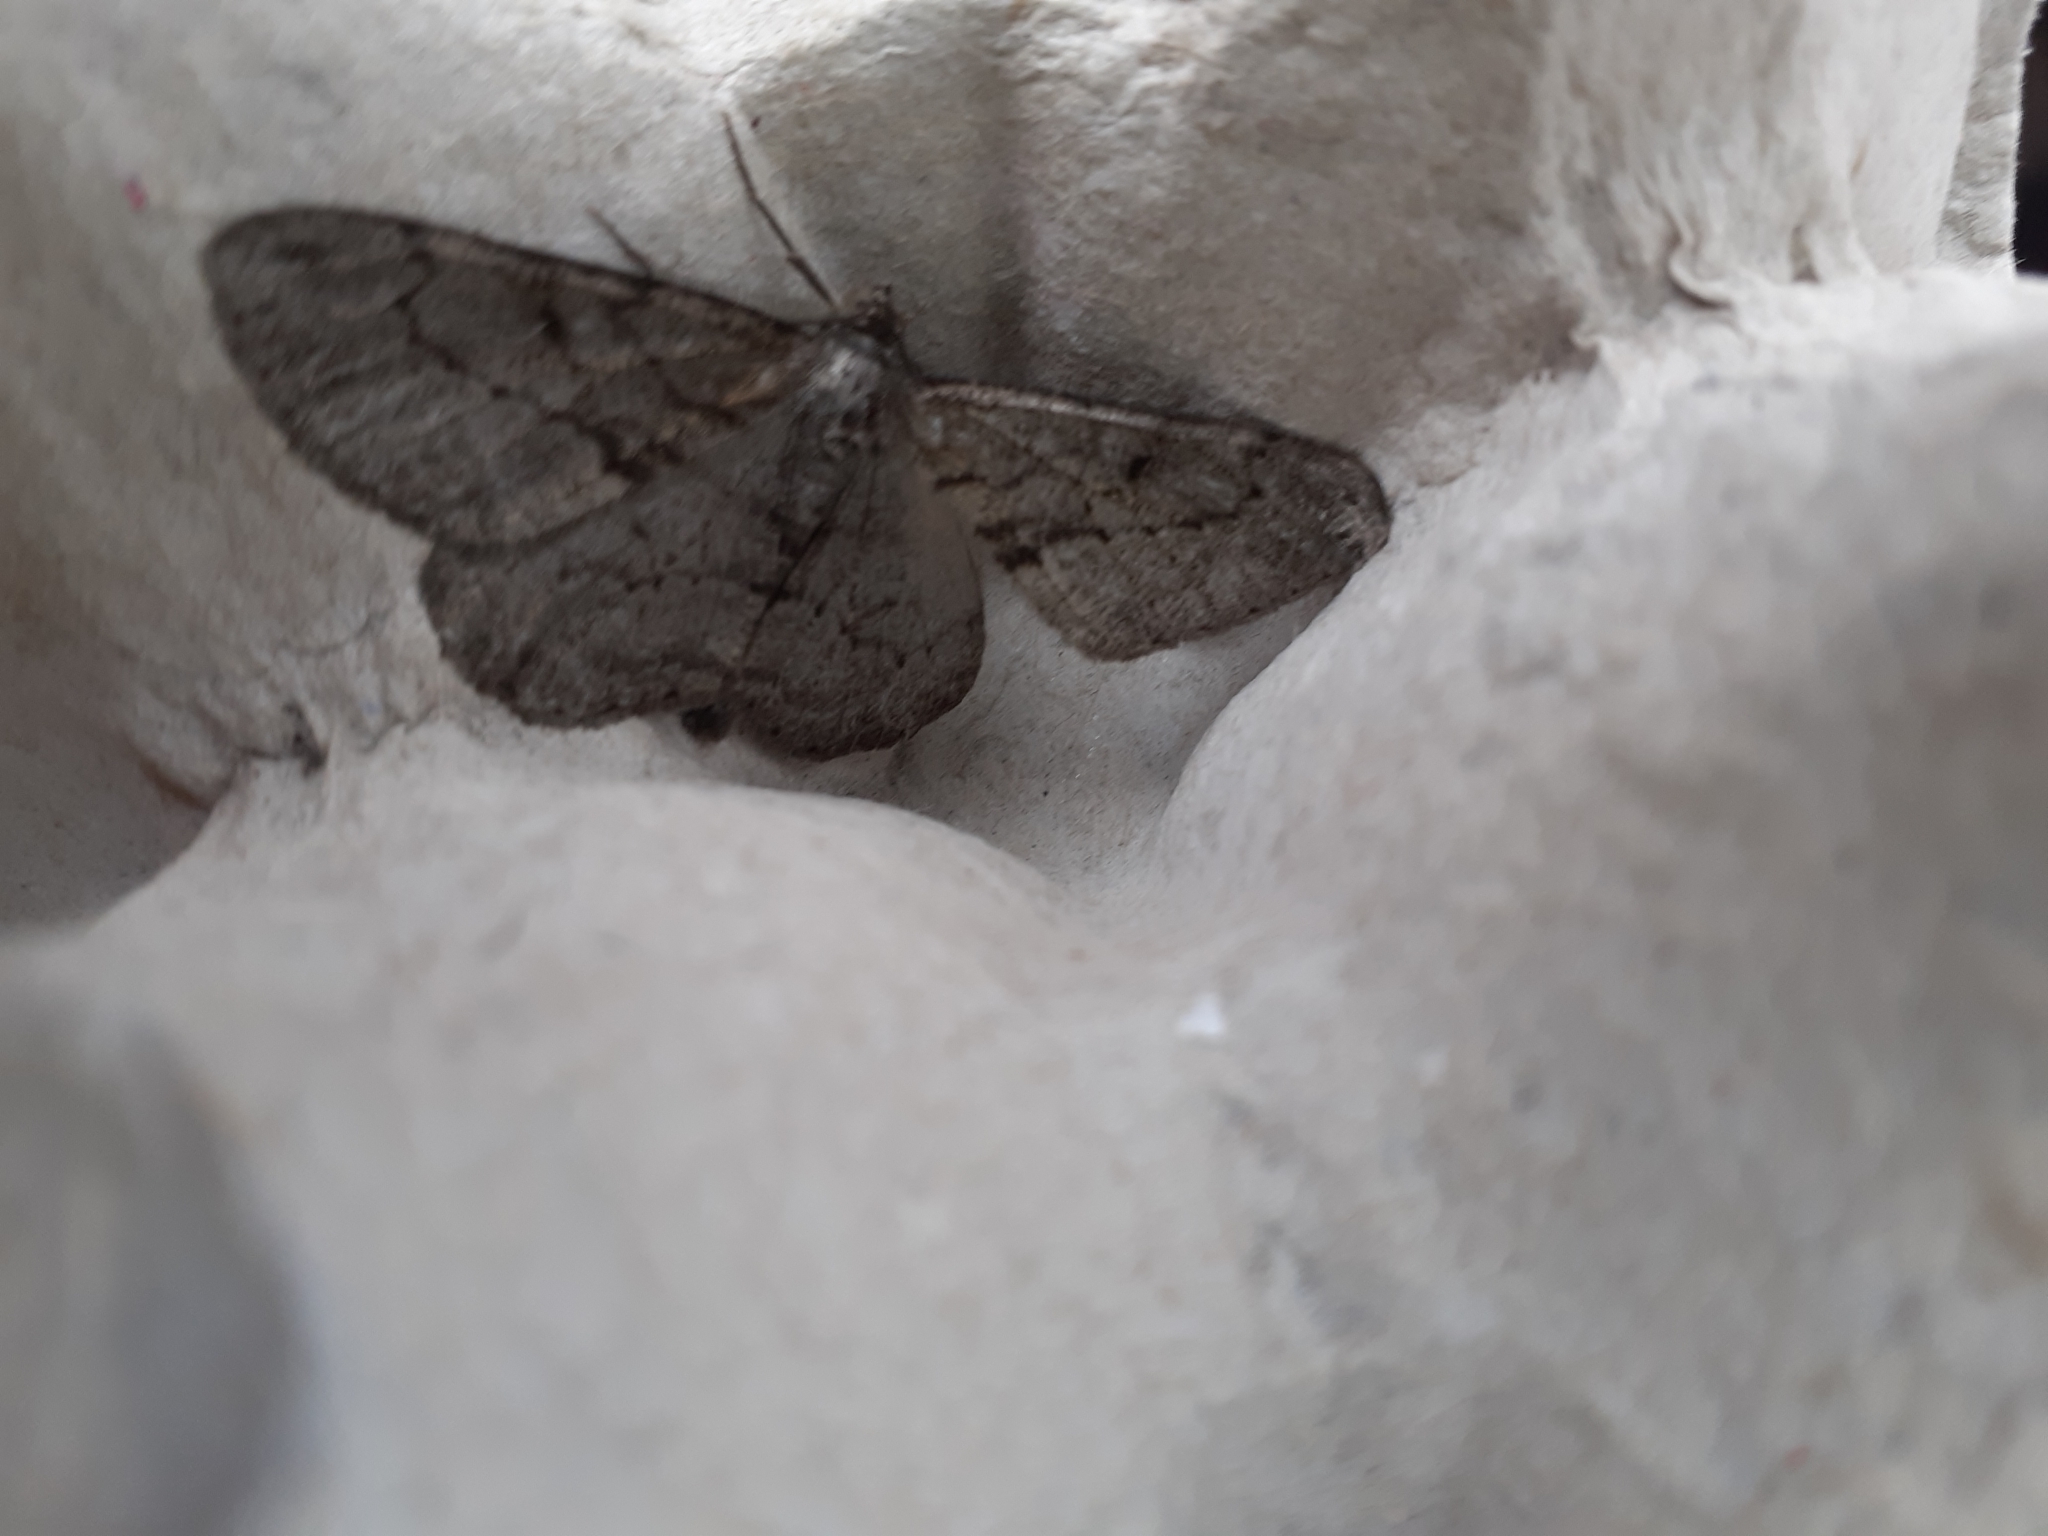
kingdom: Animalia
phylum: Arthropoda
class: Insecta
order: Lepidoptera
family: Geometridae
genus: Peribatodes
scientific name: Peribatodes rhomboidaria
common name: Willow beauty
